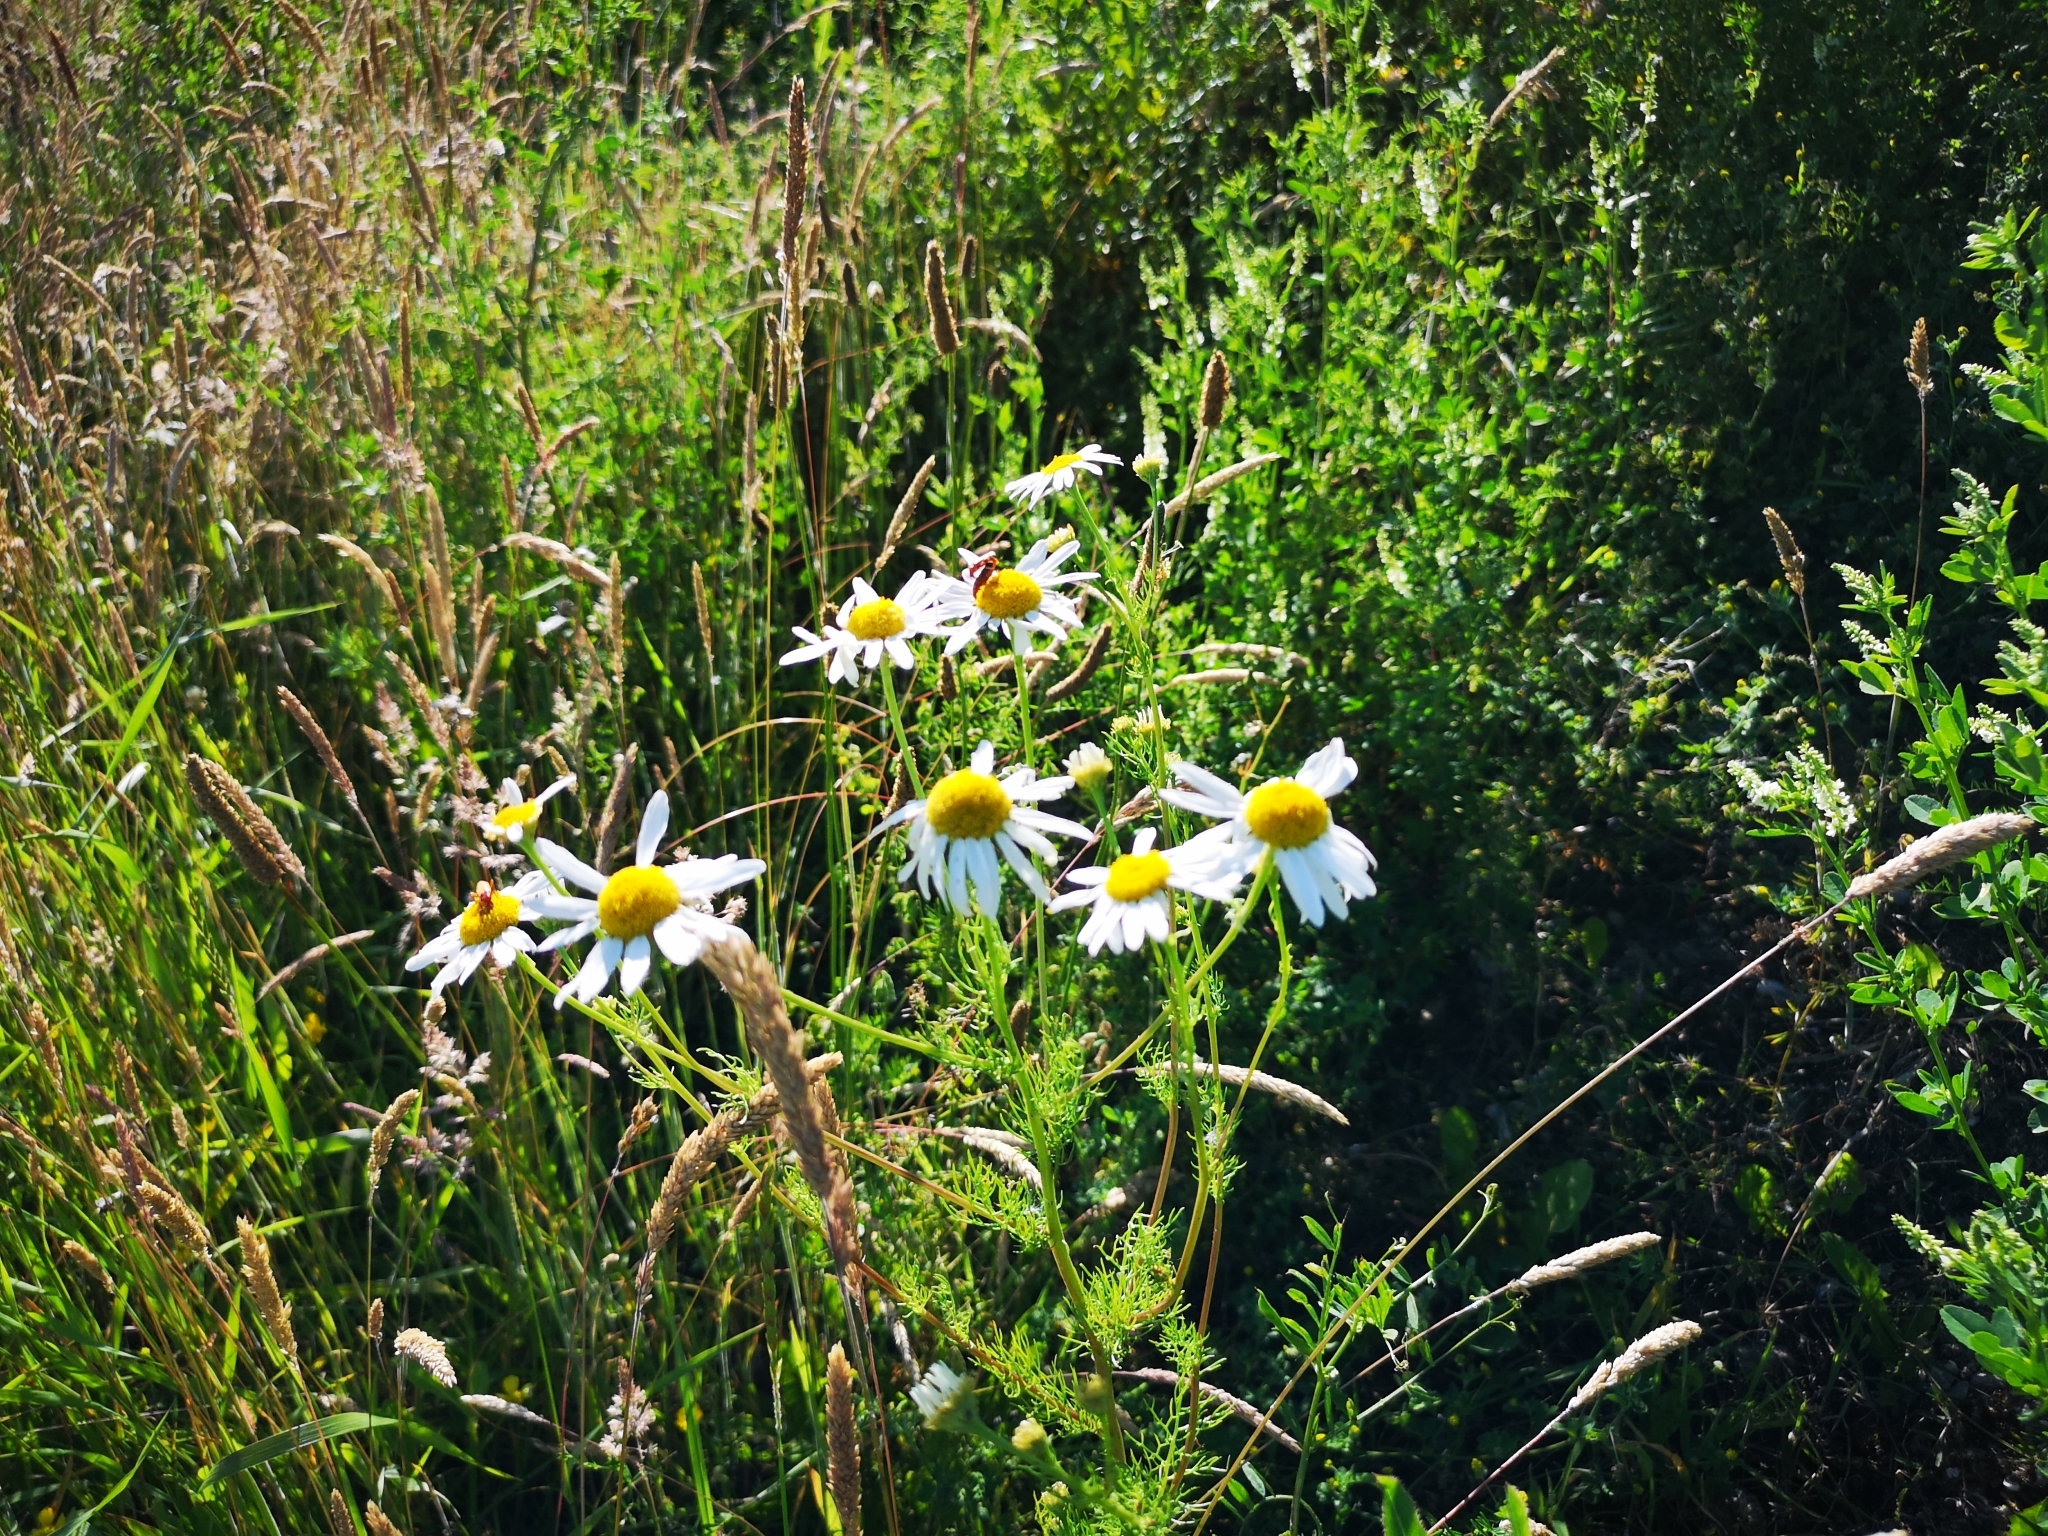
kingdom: Plantae
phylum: Tracheophyta
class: Magnoliopsida
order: Asterales
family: Asteraceae
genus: Tripleurospermum
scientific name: Tripleurospermum inodorum
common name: Scentless mayweed
